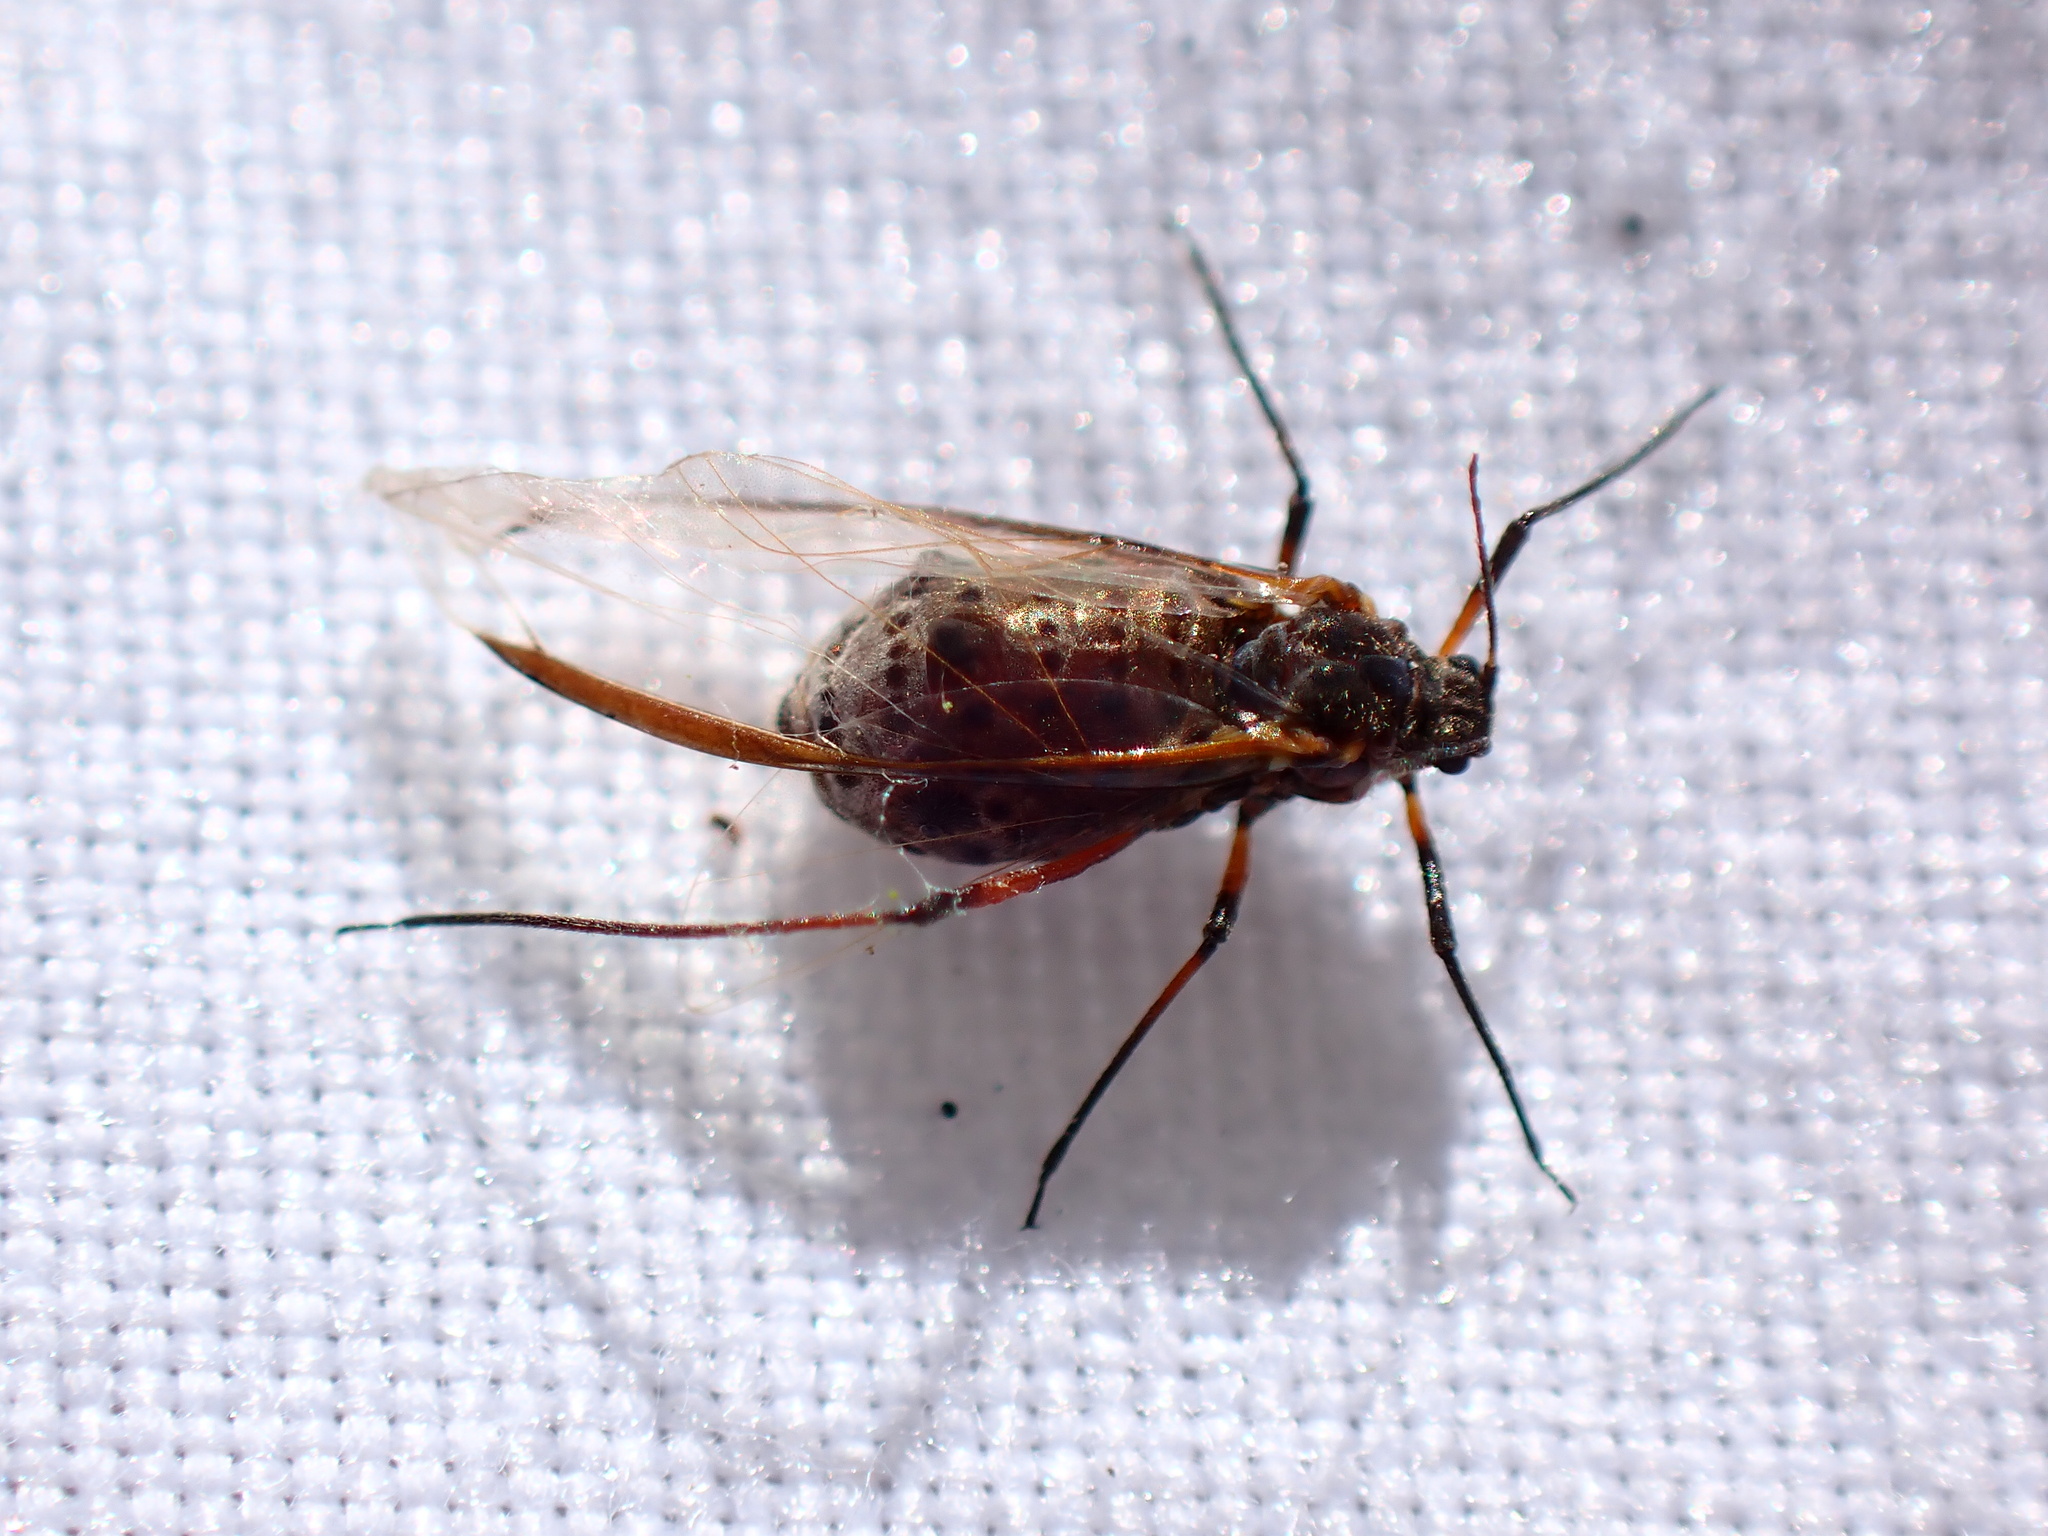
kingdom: Animalia
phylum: Arthropoda
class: Insecta
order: Hemiptera
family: Aphididae
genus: Tuberolachnus
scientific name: Tuberolachnus salignus
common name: Giant willow aphid
